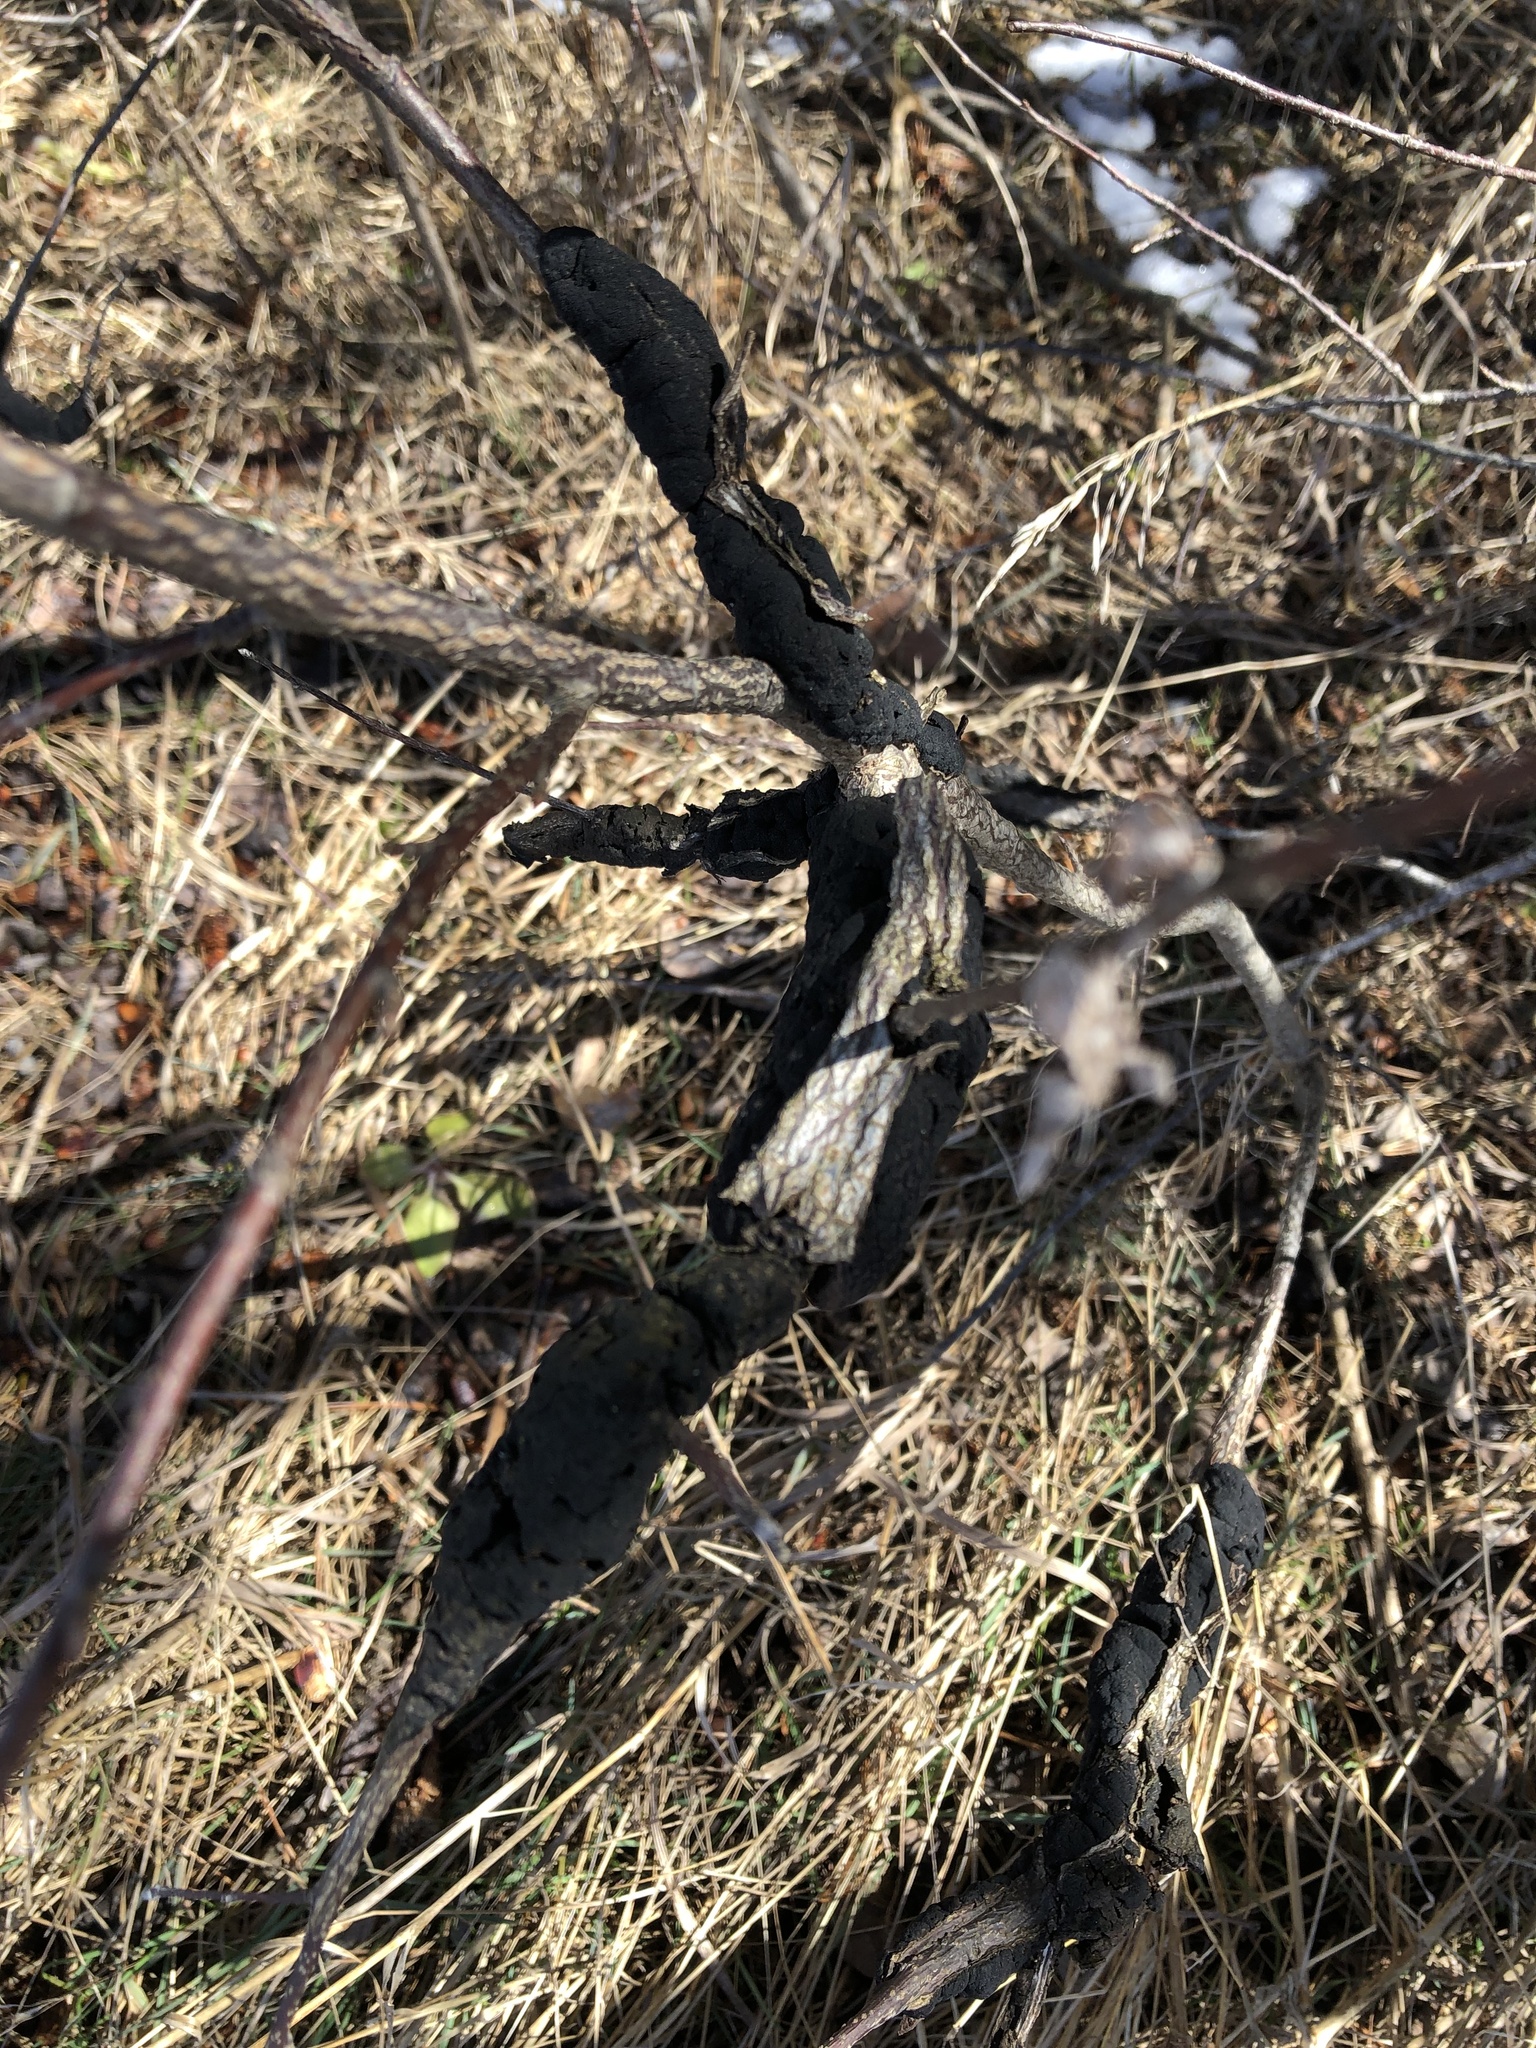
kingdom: Fungi
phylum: Ascomycota
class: Dothideomycetes
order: Venturiales
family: Venturiaceae
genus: Apiosporina
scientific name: Apiosporina morbosa
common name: Black knot
